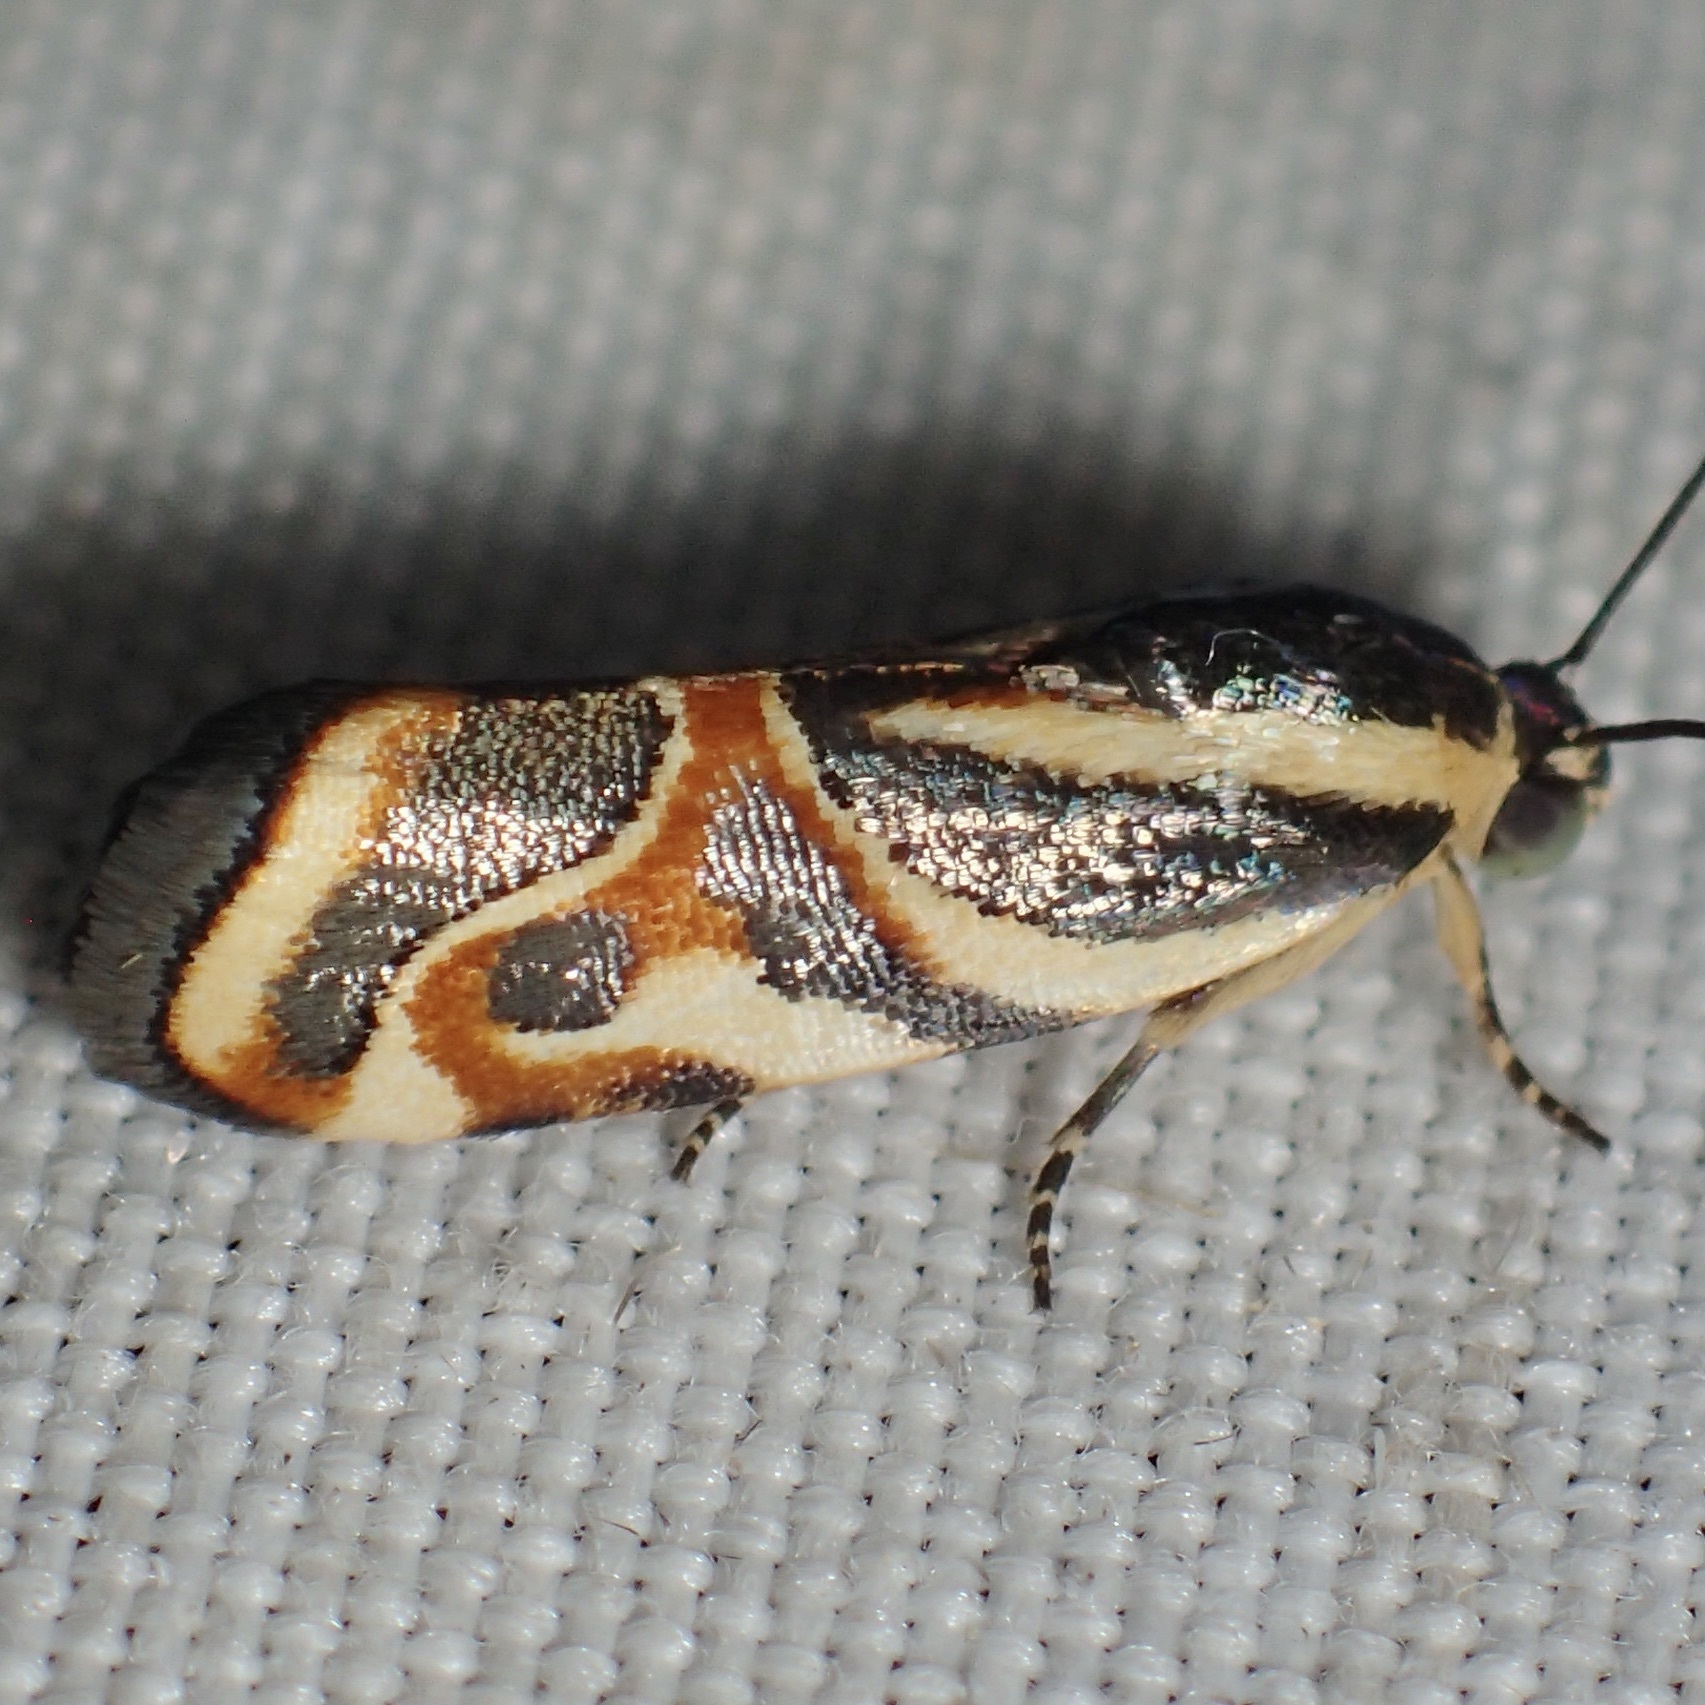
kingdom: Animalia
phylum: Arthropoda
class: Insecta
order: Lepidoptera
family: Noctuidae
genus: Spragueia
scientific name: Spragueia magnifica
